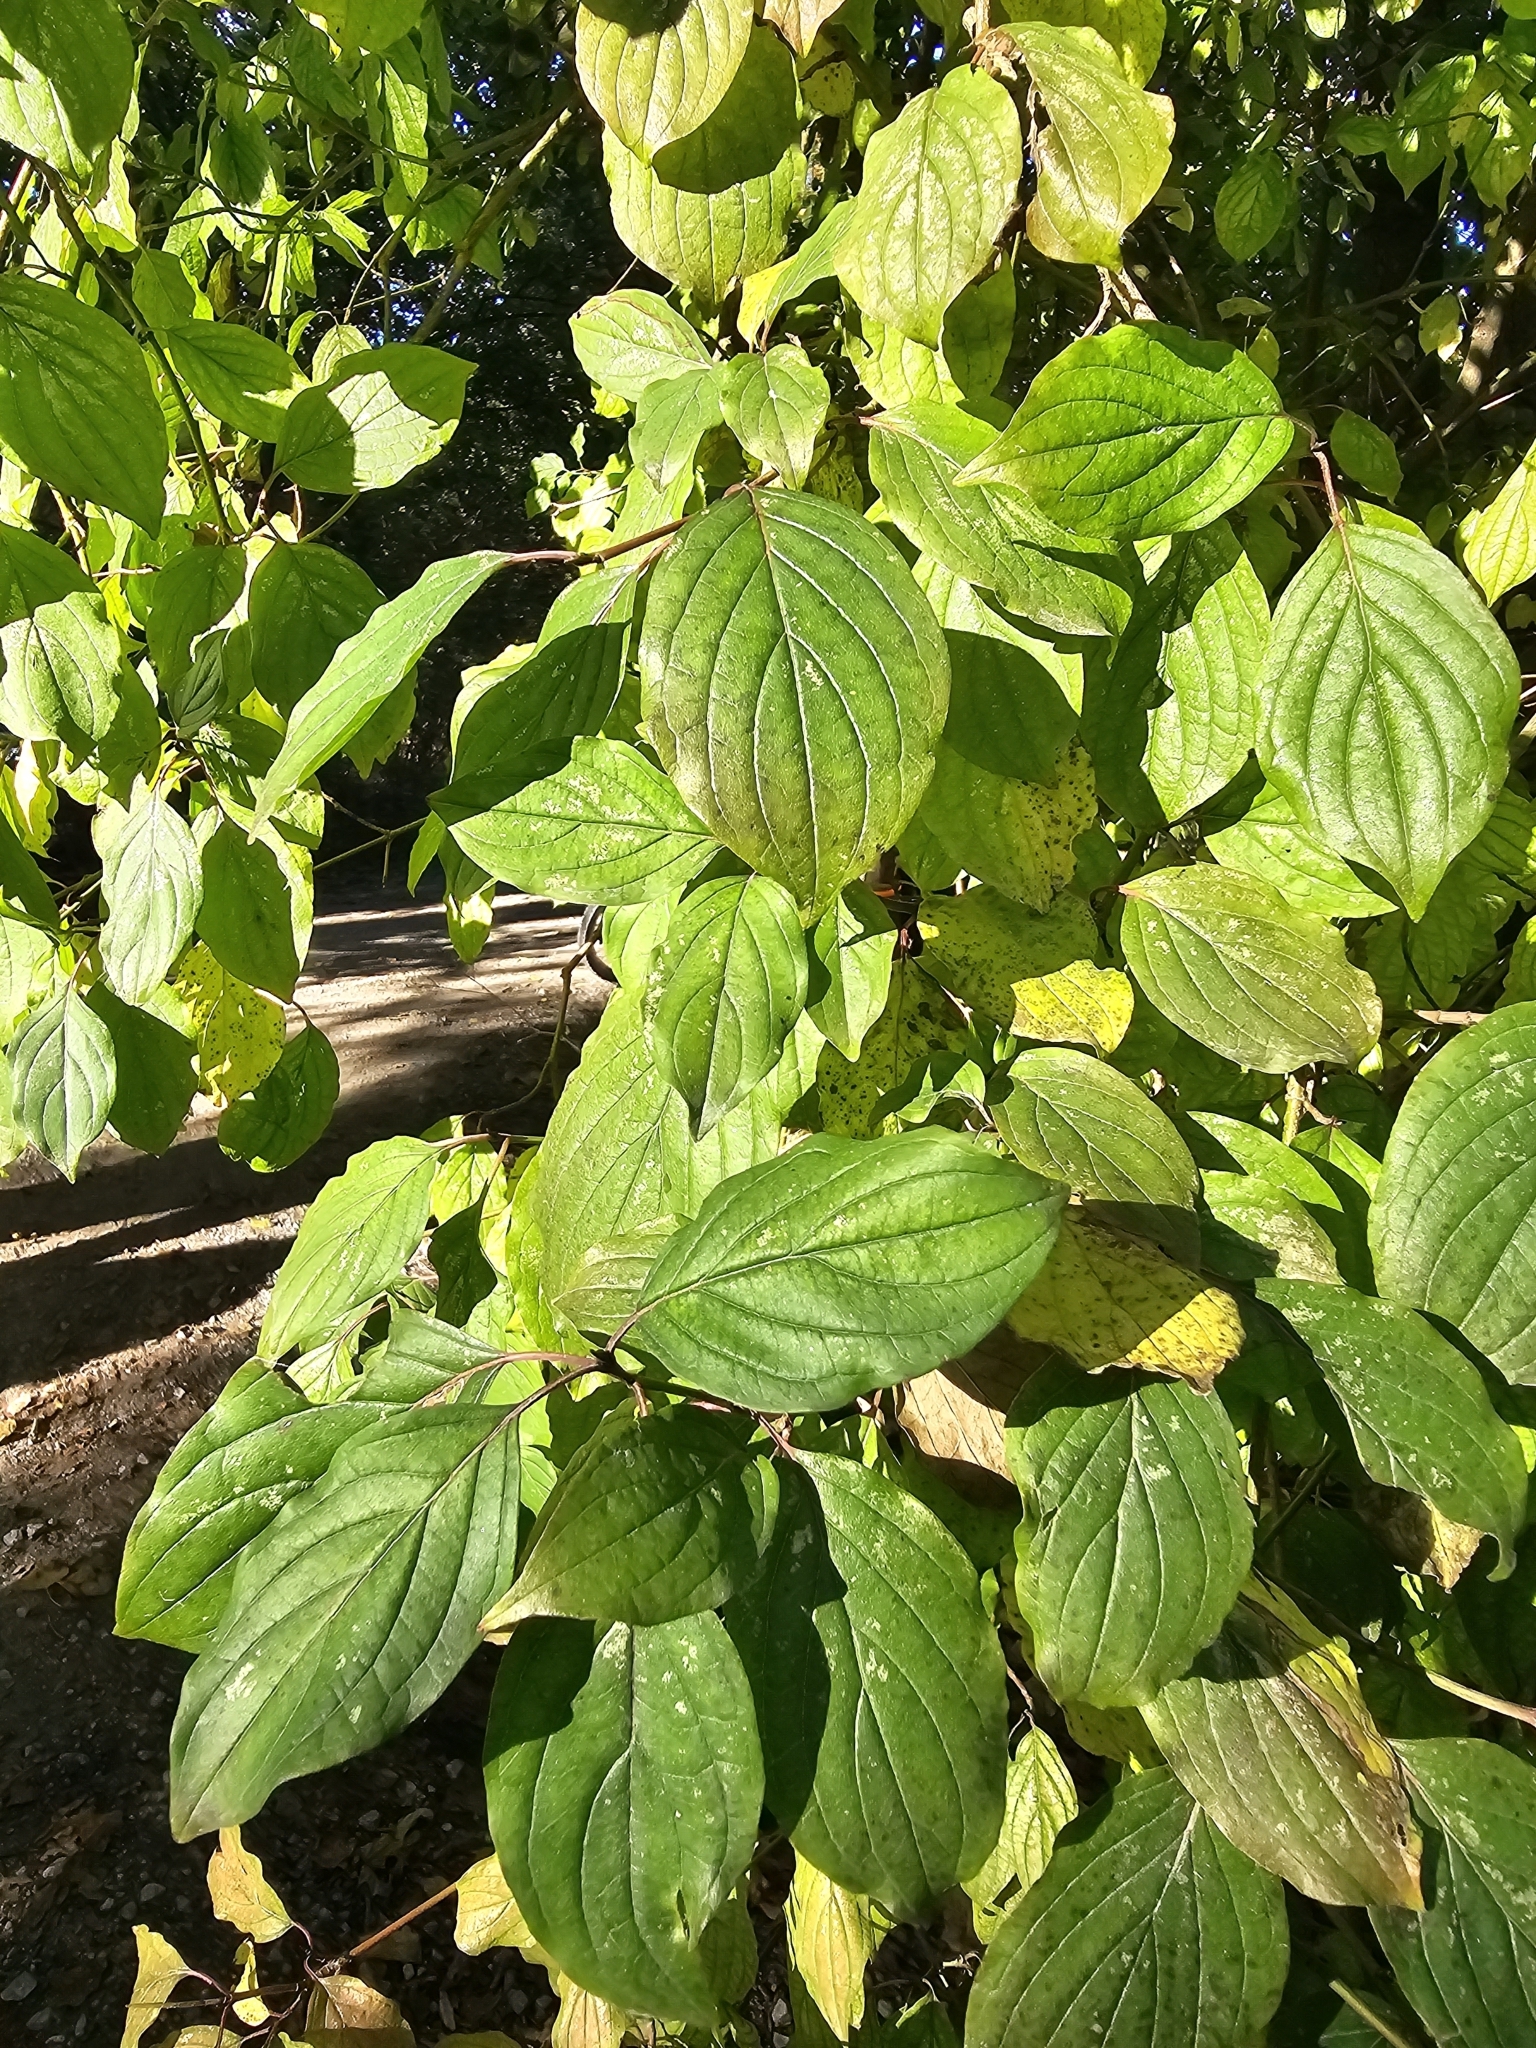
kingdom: Plantae
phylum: Tracheophyta
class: Magnoliopsida
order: Cornales
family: Cornaceae
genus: Cornus
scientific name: Cornus sanguinea
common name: Dogwood
